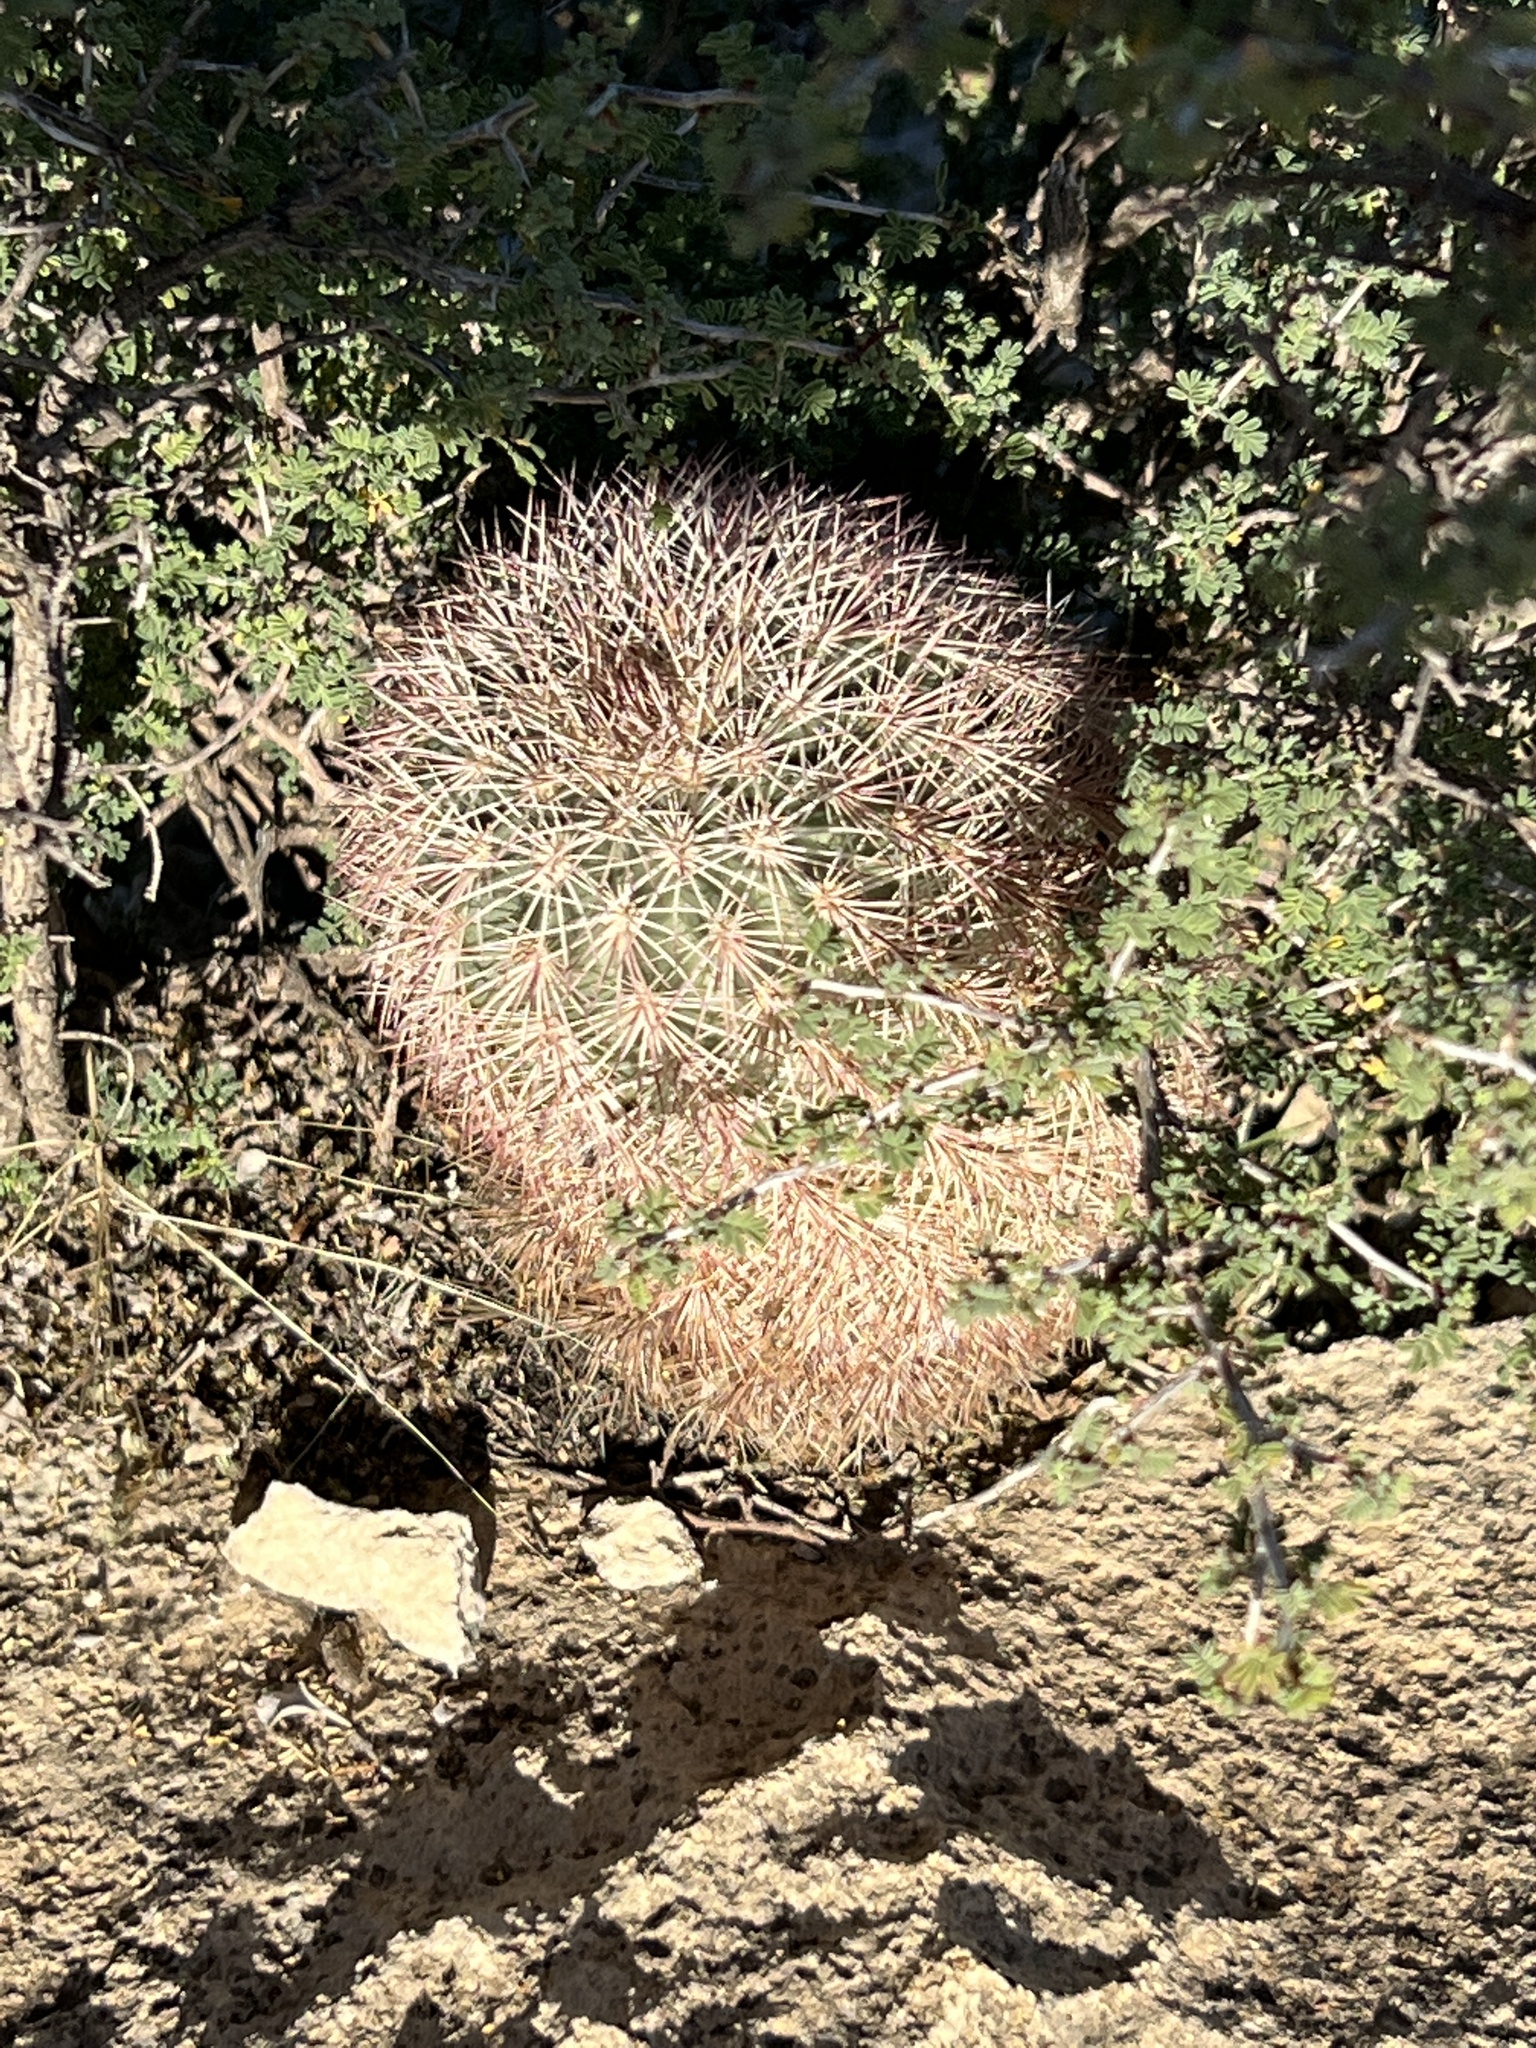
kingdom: Plantae
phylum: Tracheophyta
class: Magnoliopsida
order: Caryophyllales
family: Cactaceae
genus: Echinocereus
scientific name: Echinocereus dasyacanthus
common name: Spiny hedgehog cactus
